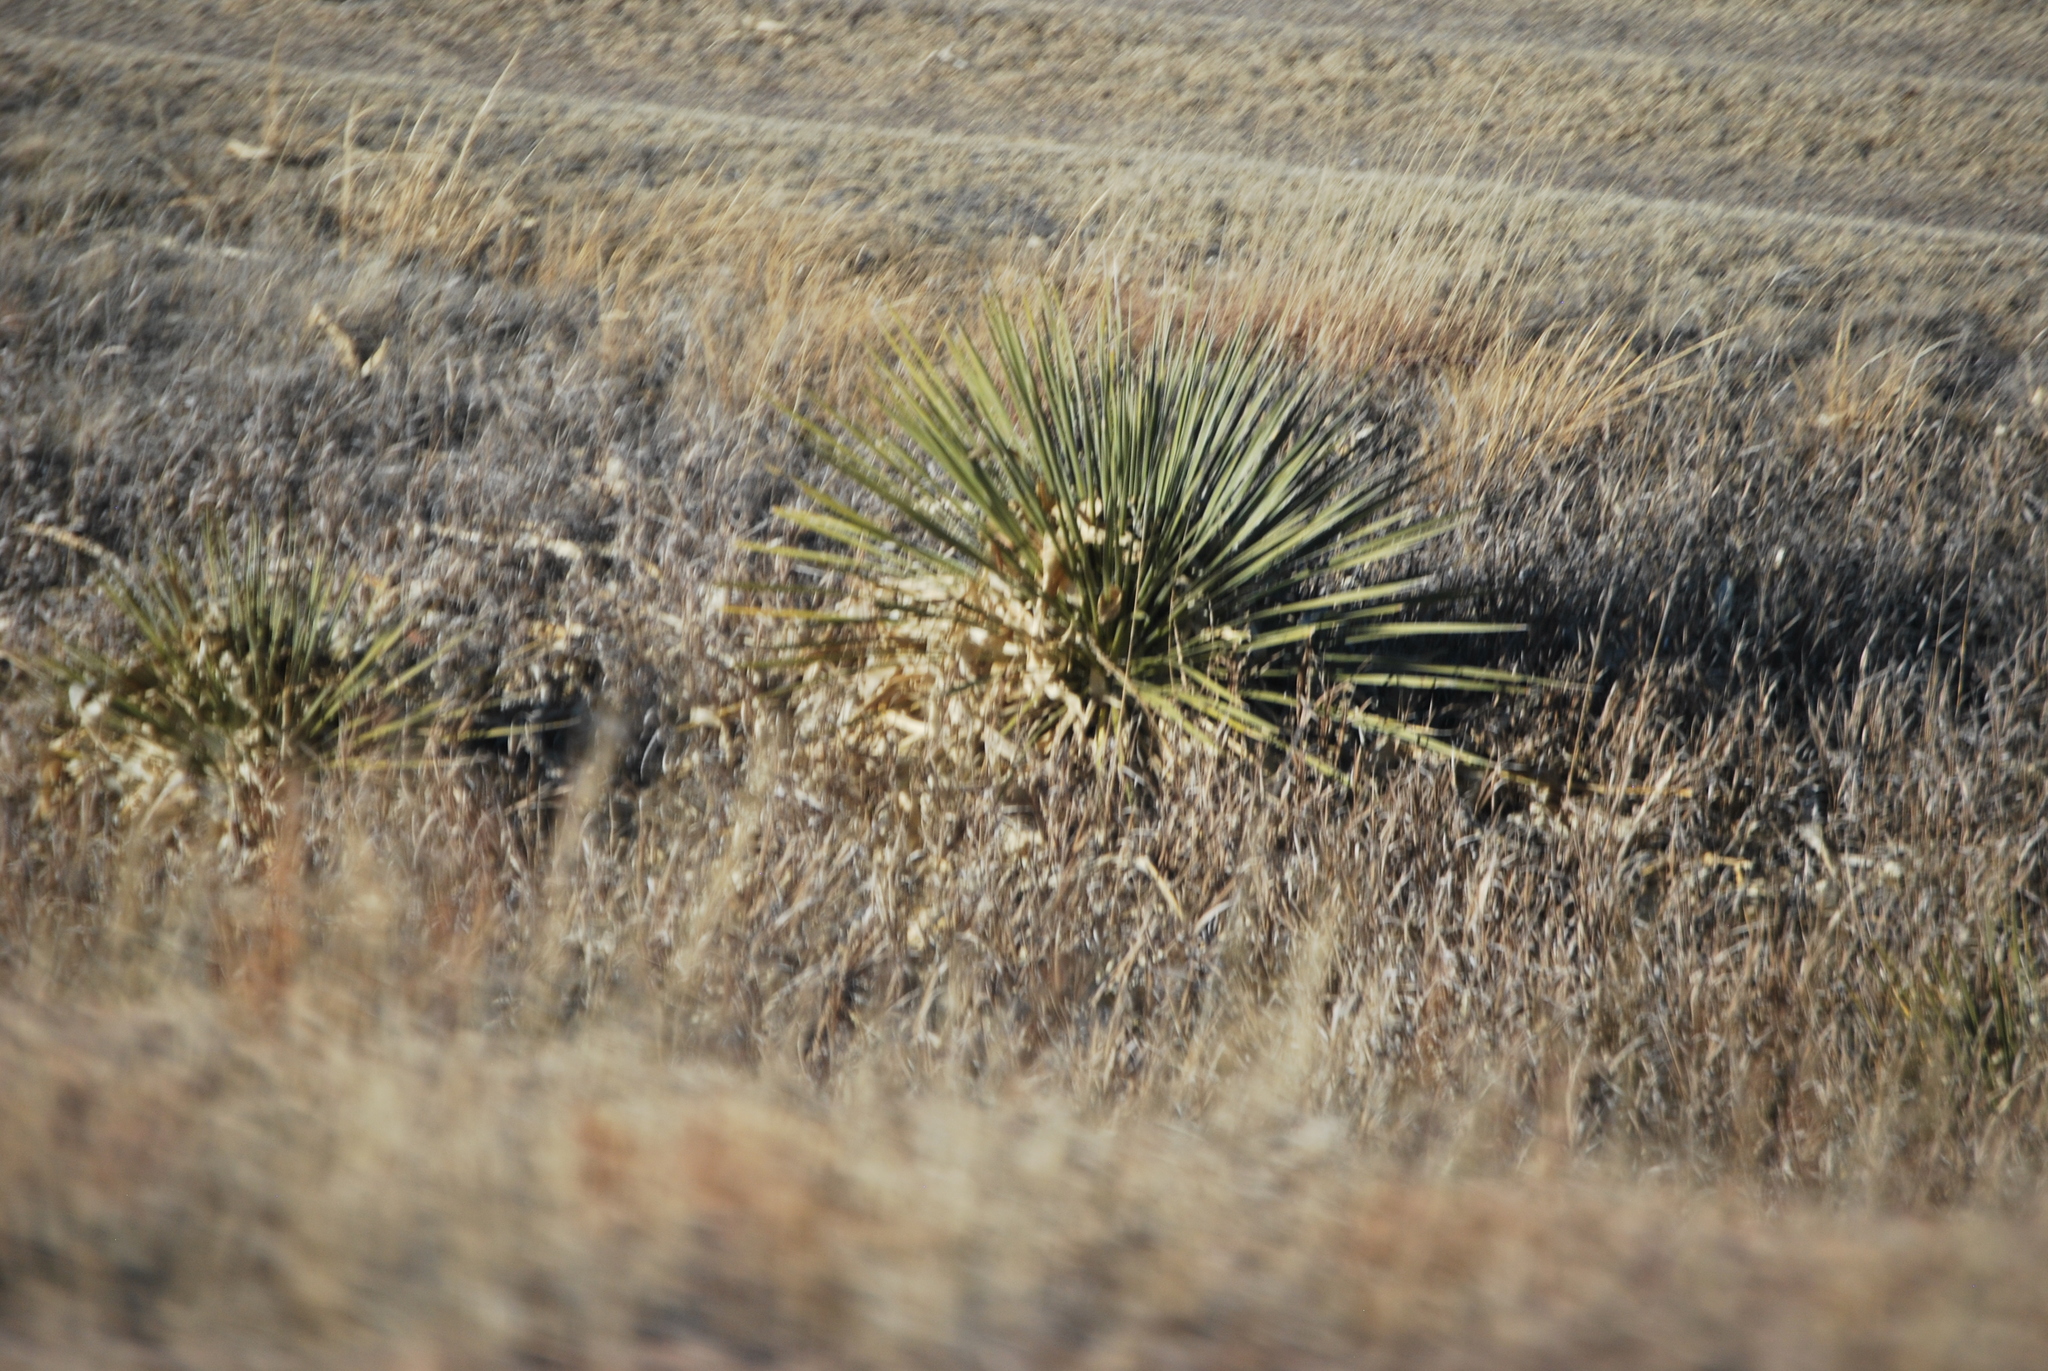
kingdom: Plantae
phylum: Tracheophyta
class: Liliopsida
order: Asparagales
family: Asparagaceae
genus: Yucca
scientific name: Yucca glauca
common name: Great plains yucca
